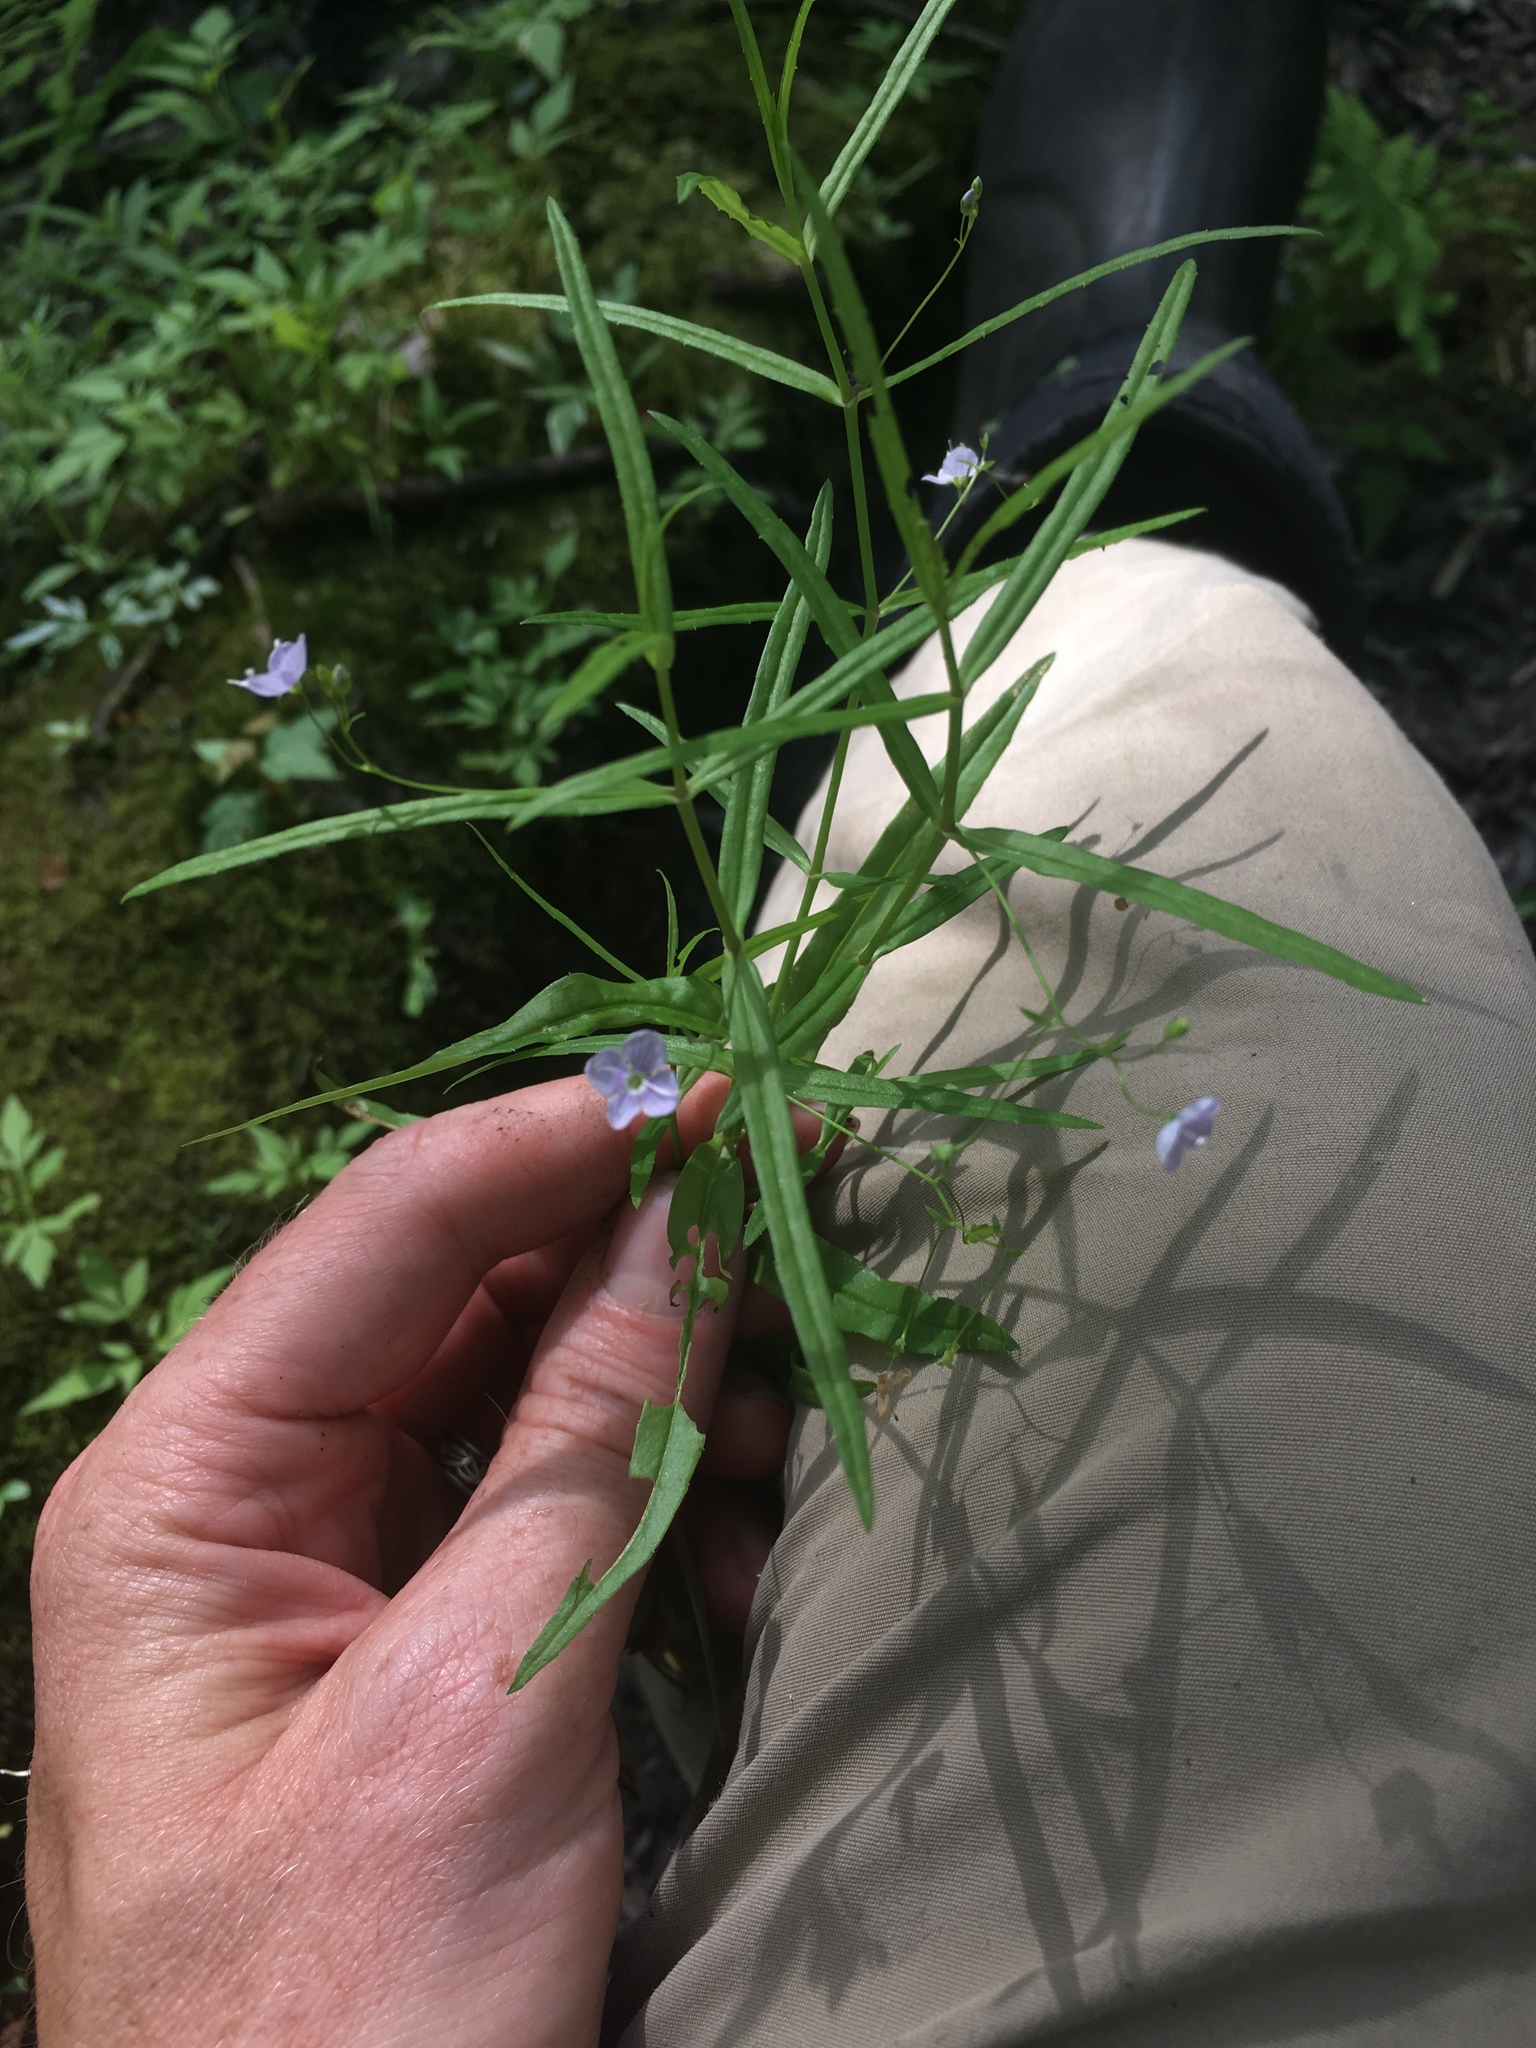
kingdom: Plantae
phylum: Tracheophyta
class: Magnoliopsida
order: Lamiales
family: Plantaginaceae
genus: Veronica
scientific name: Veronica scutellata
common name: Marsh speedwell
